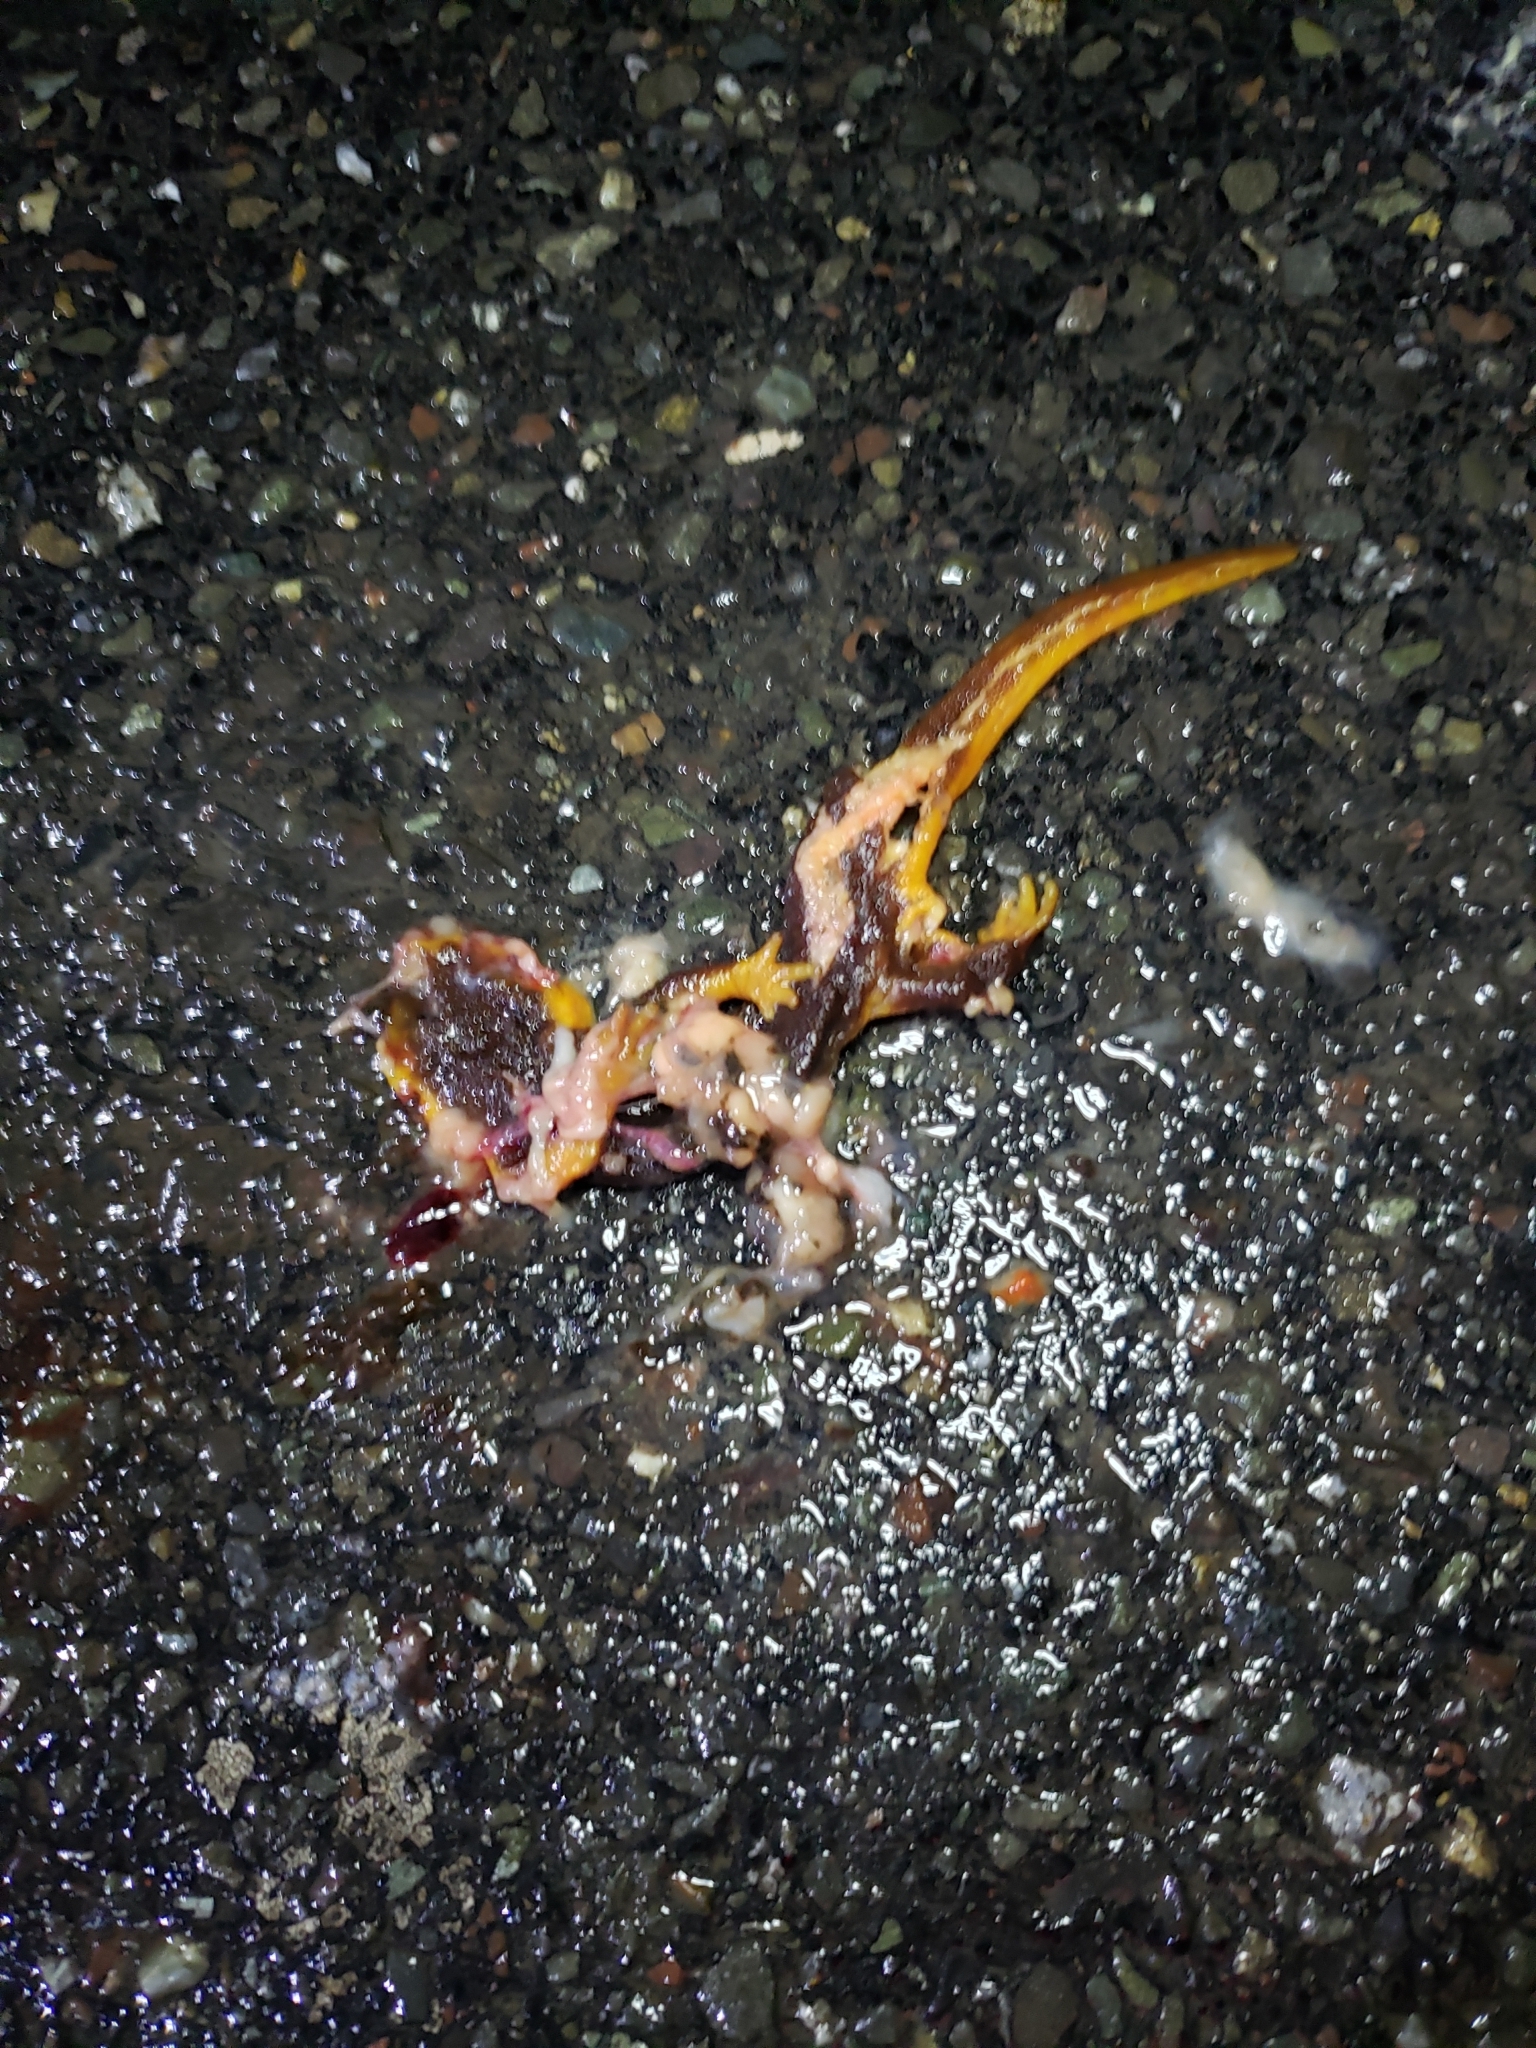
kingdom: Animalia
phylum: Chordata
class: Amphibia
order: Caudata
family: Salamandridae
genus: Taricha
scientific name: Taricha
